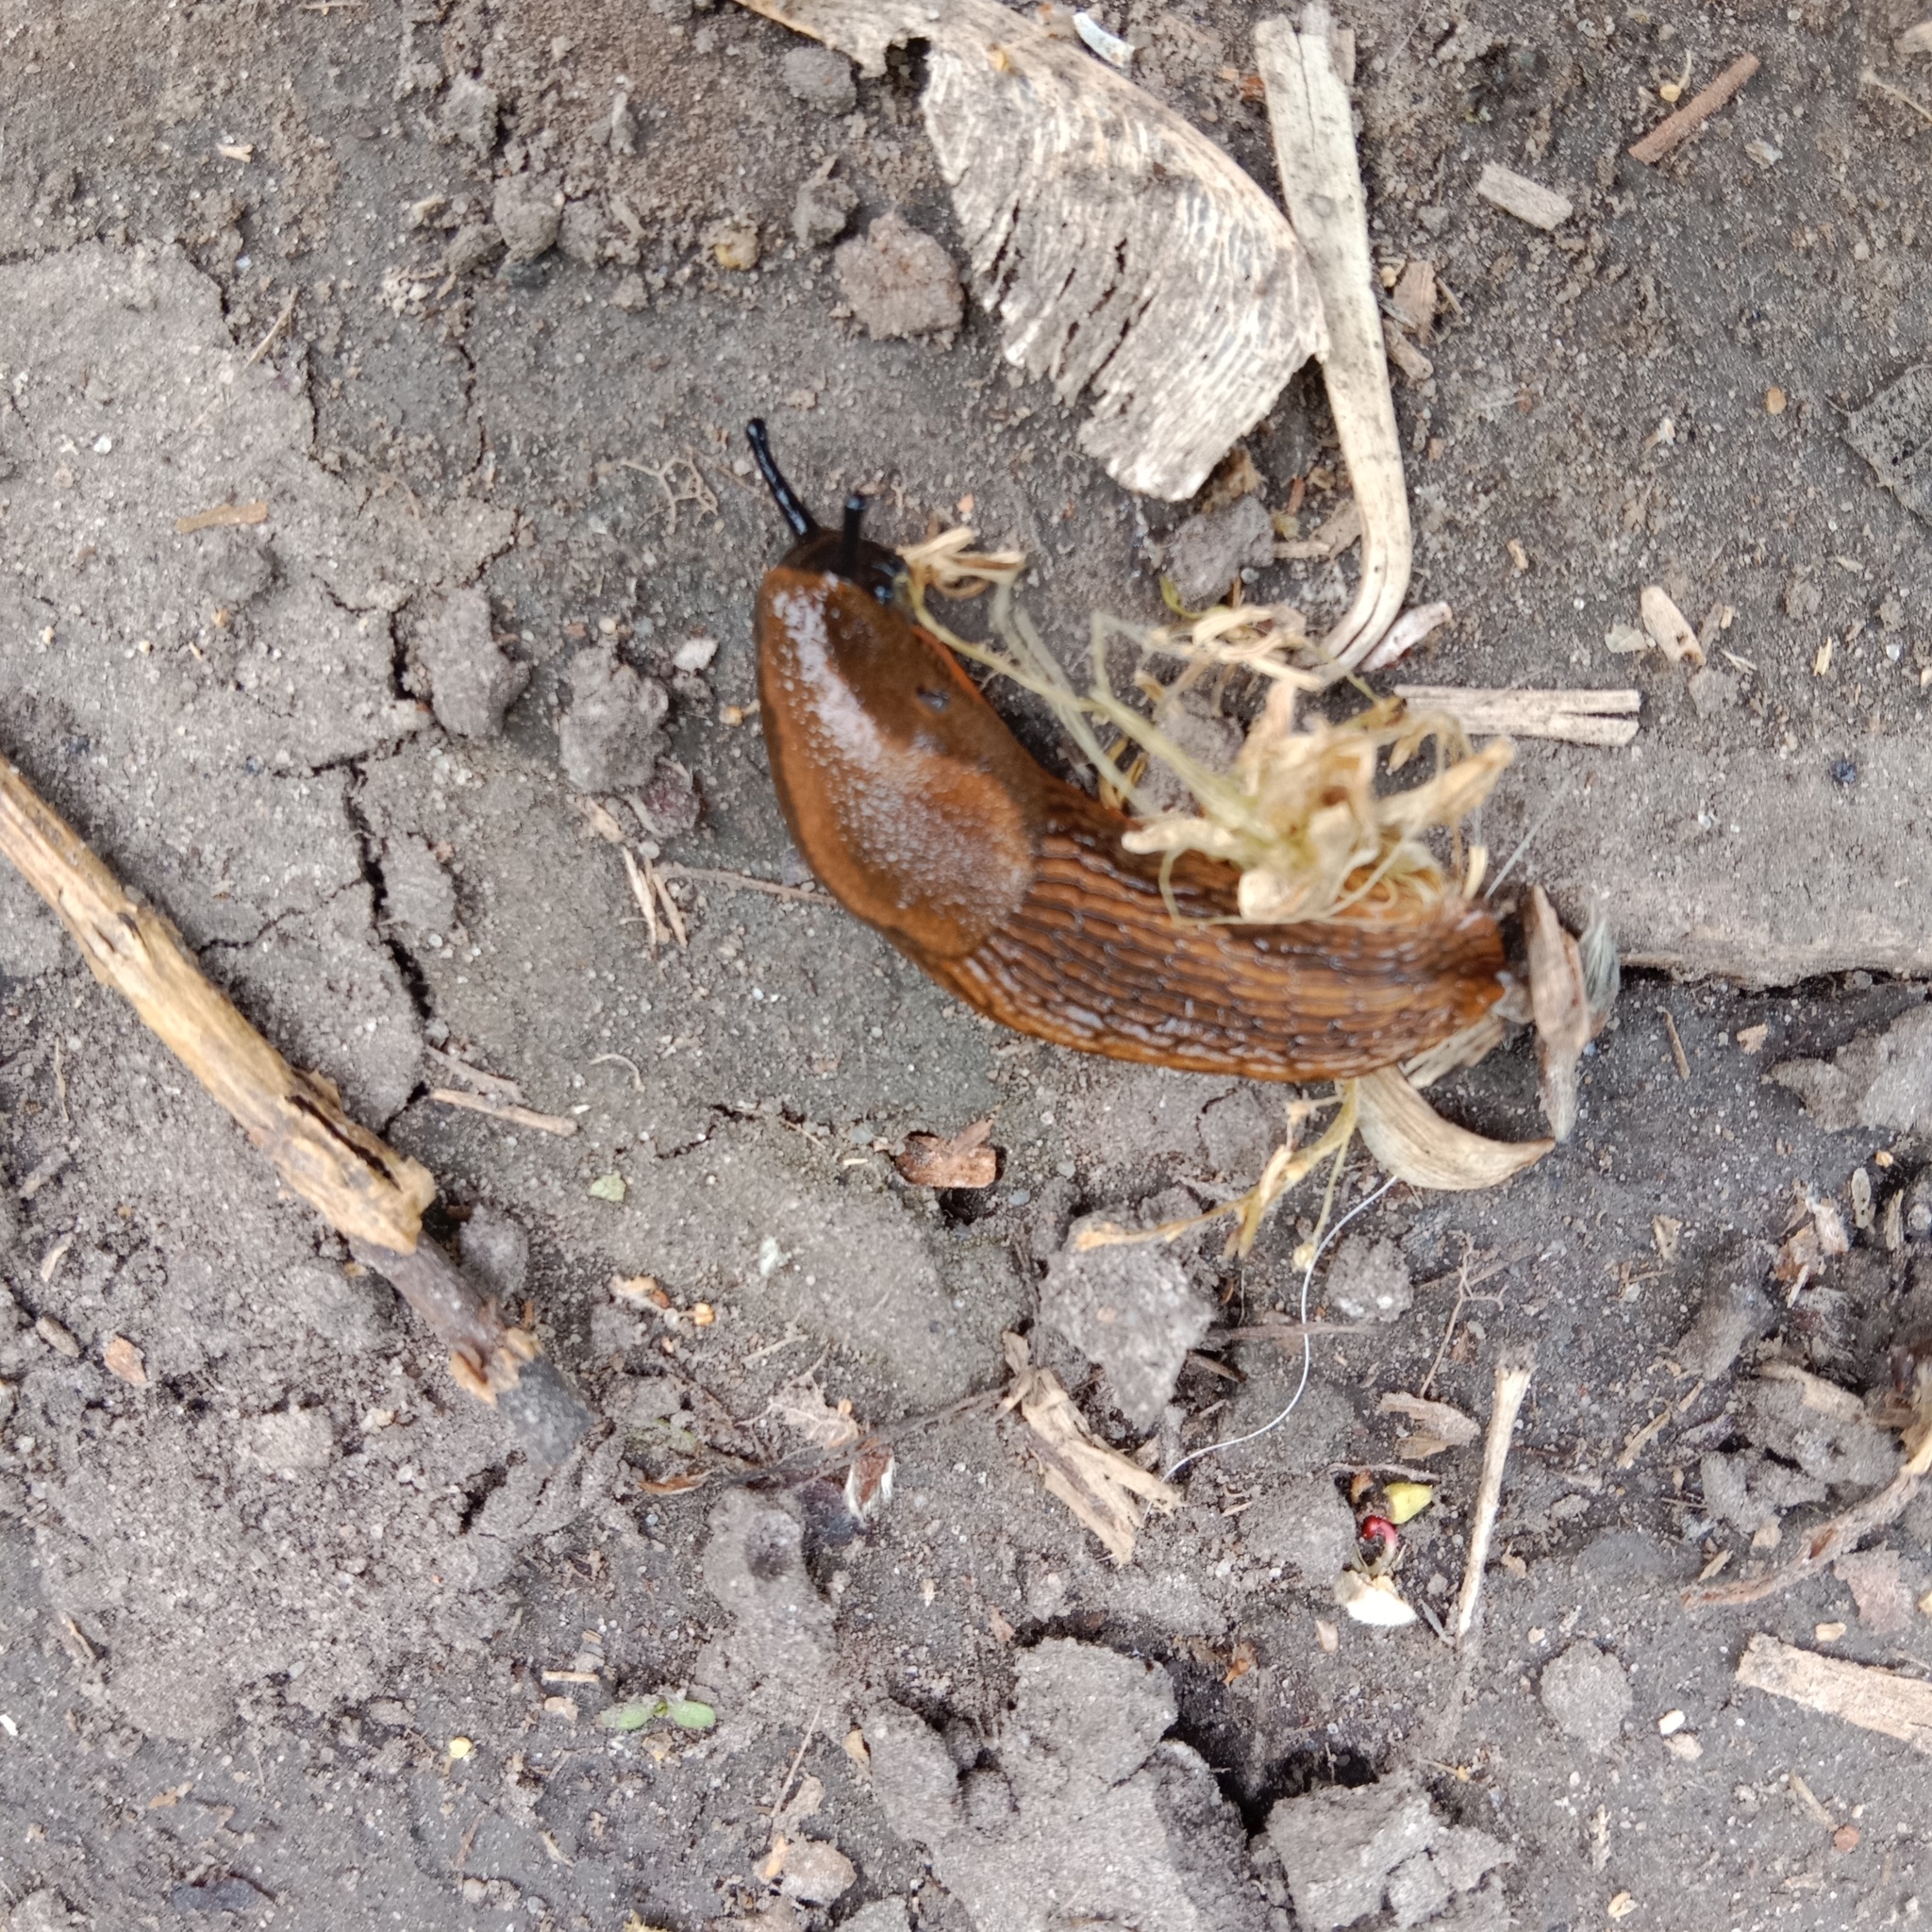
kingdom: Animalia
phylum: Mollusca
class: Gastropoda
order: Stylommatophora
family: Arionidae
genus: Arion
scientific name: Arion vulgaris
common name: Lusitanian slug
